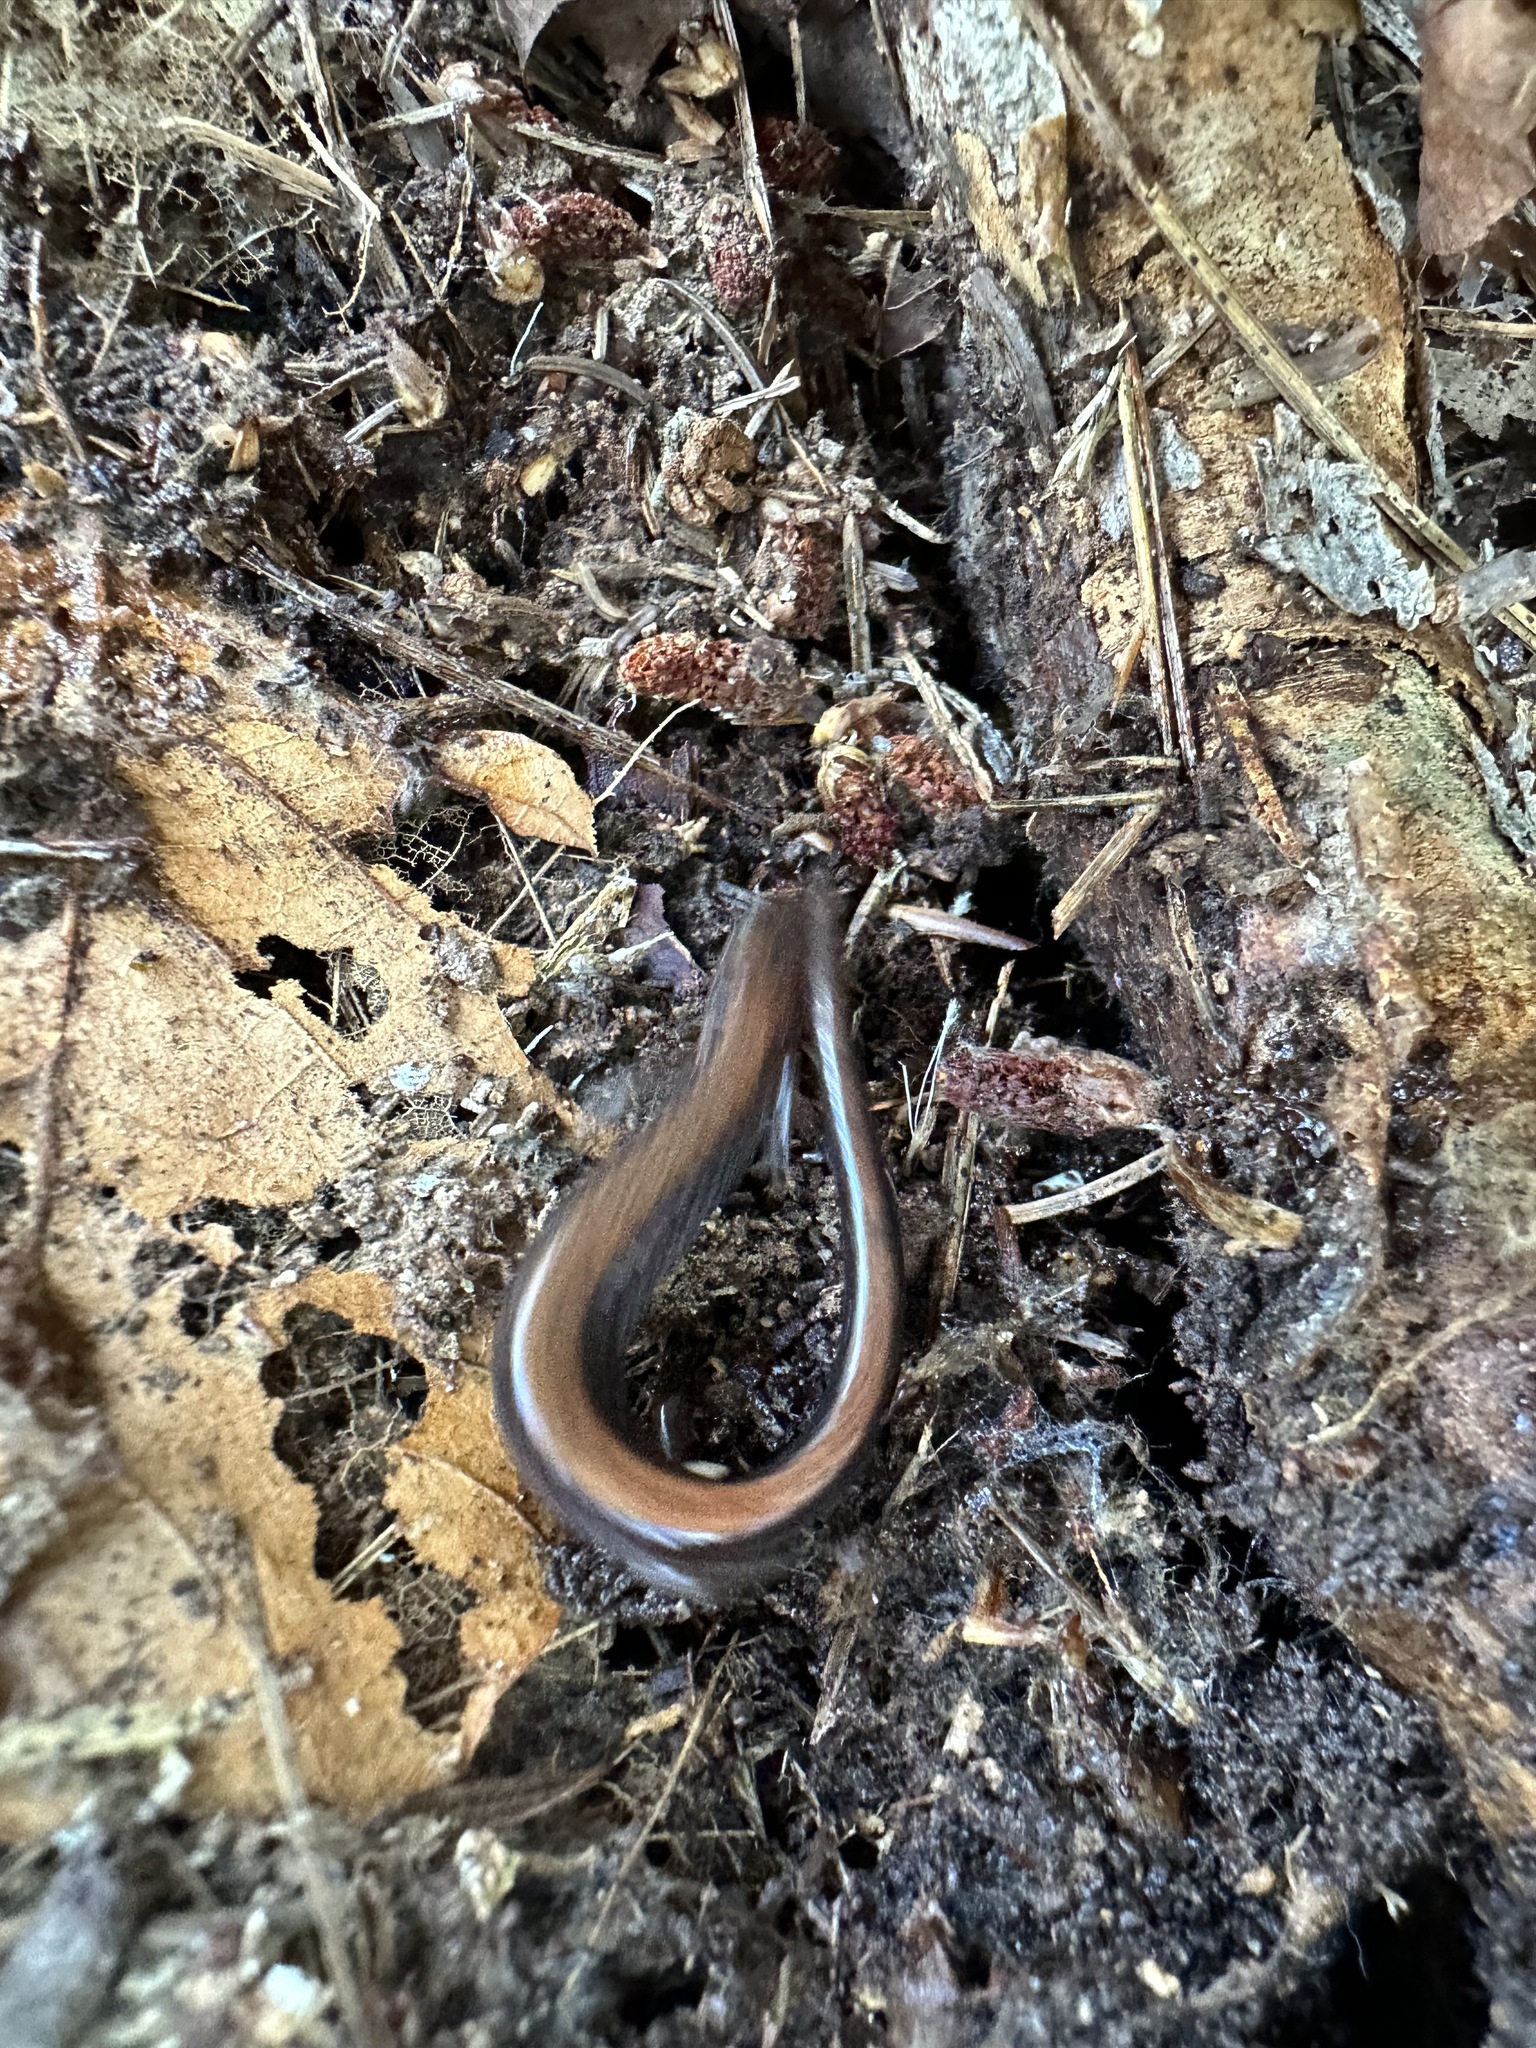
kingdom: Animalia
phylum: Chordata
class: Amphibia
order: Caudata
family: Plethodontidae
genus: Plethodon
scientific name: Plethodon cinereus
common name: Redback salamander
